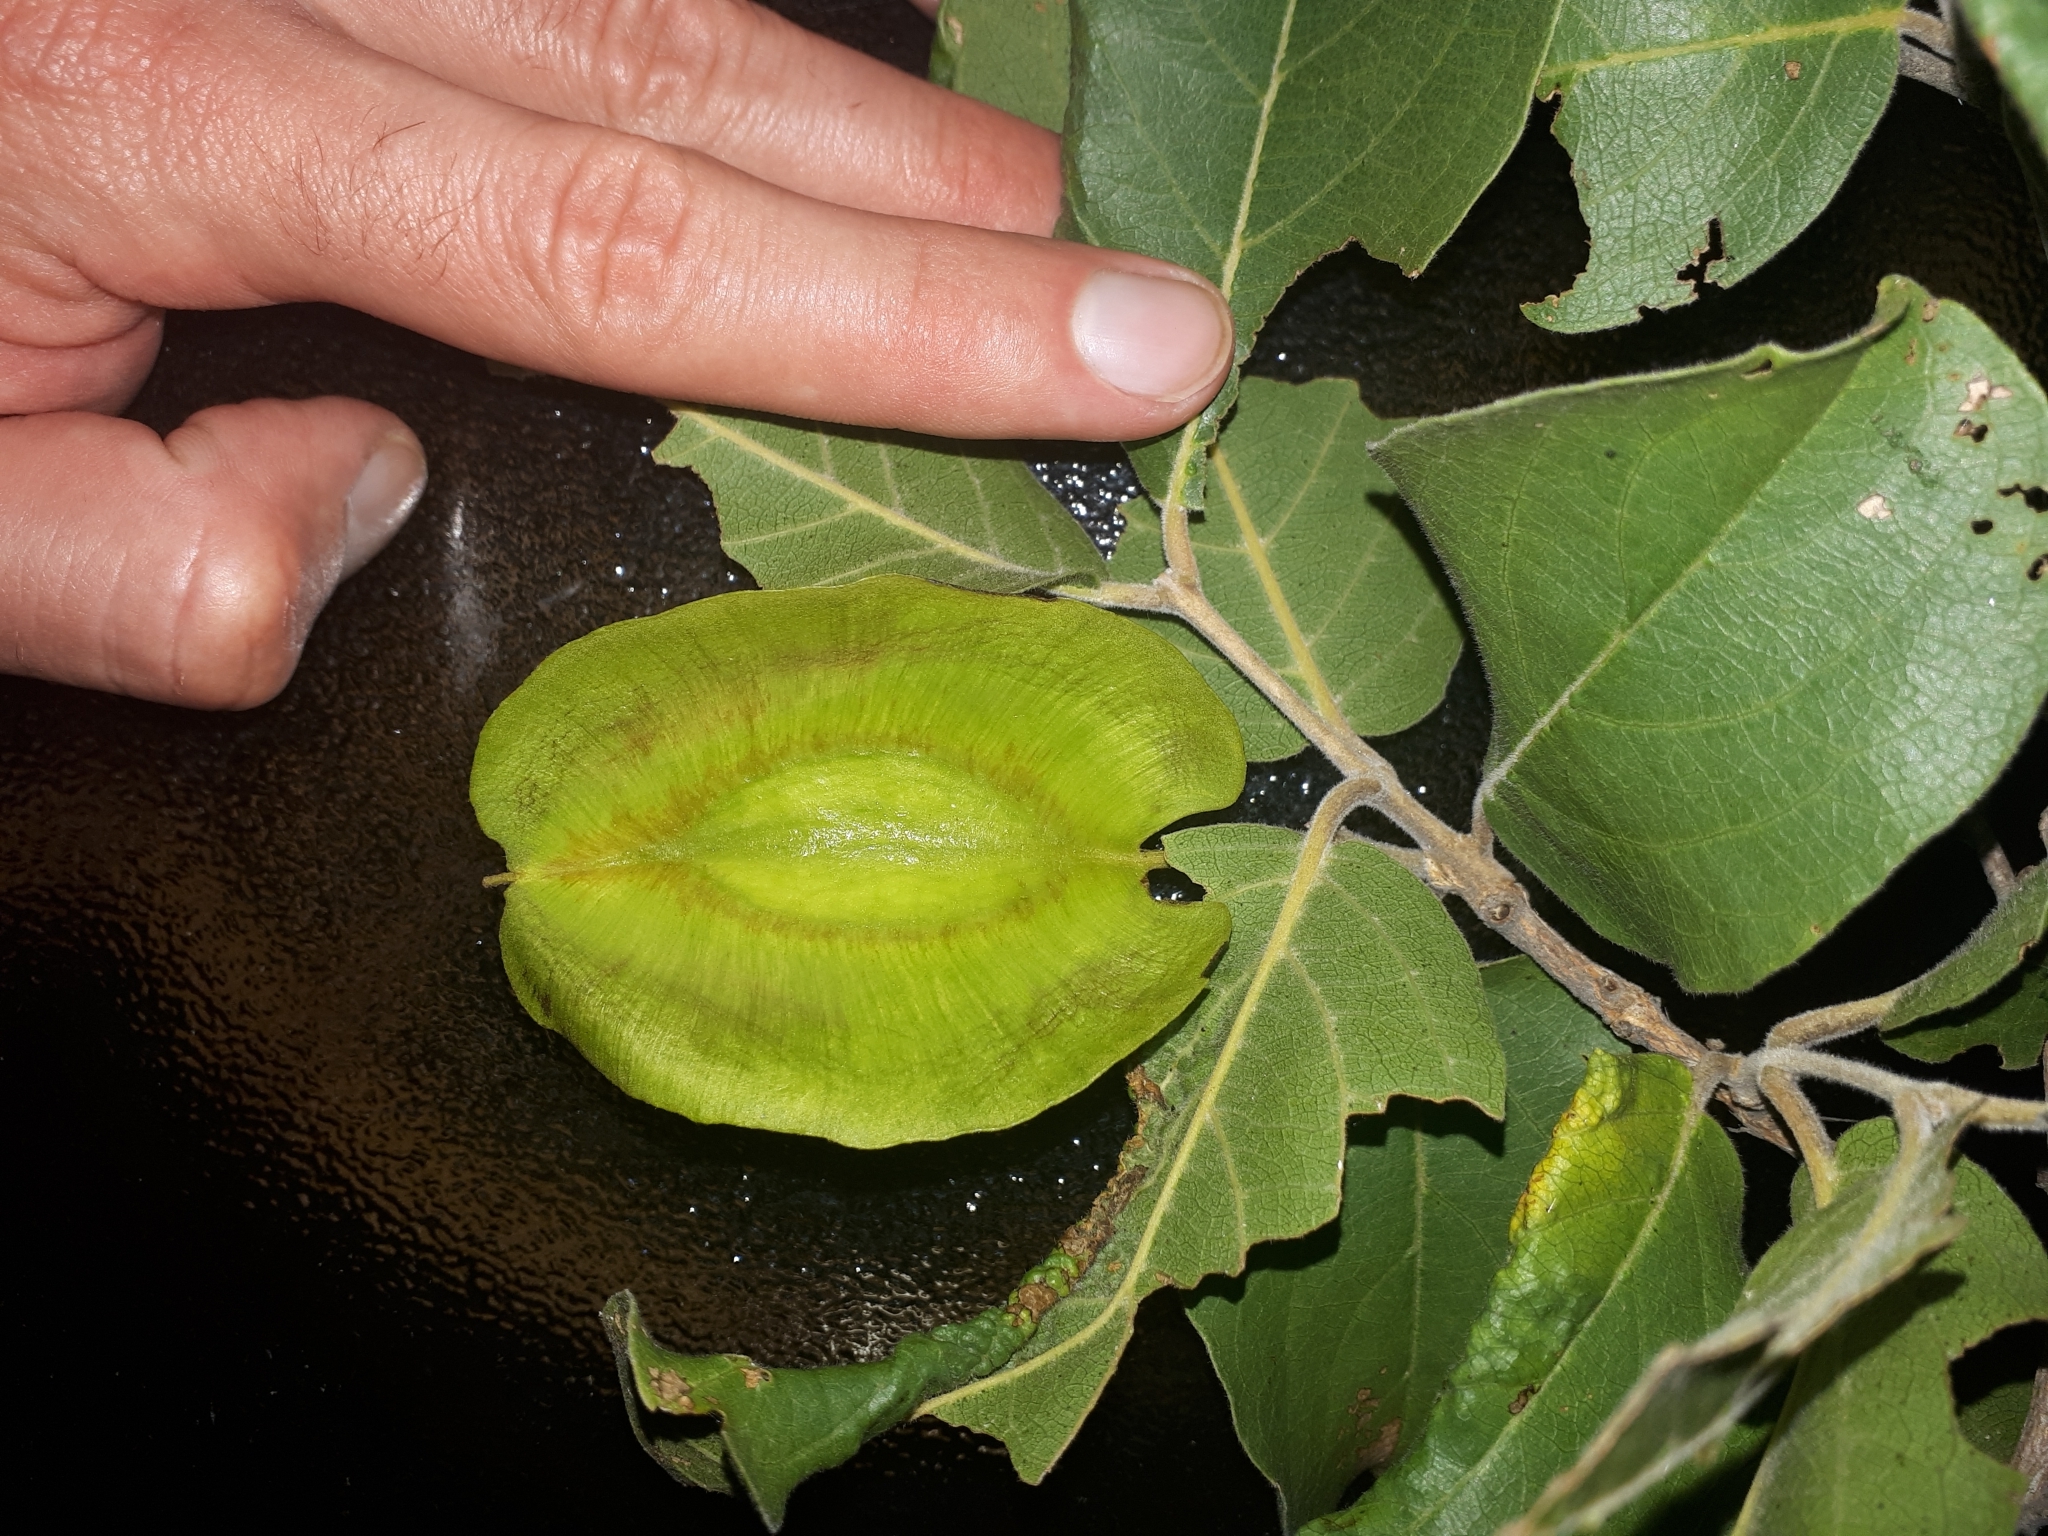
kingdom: Plantae
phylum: Tracheophyta
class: Magnoliopsida
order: Myrtales
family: Combretaceae
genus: Combretum
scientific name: Combretum zeyheri
